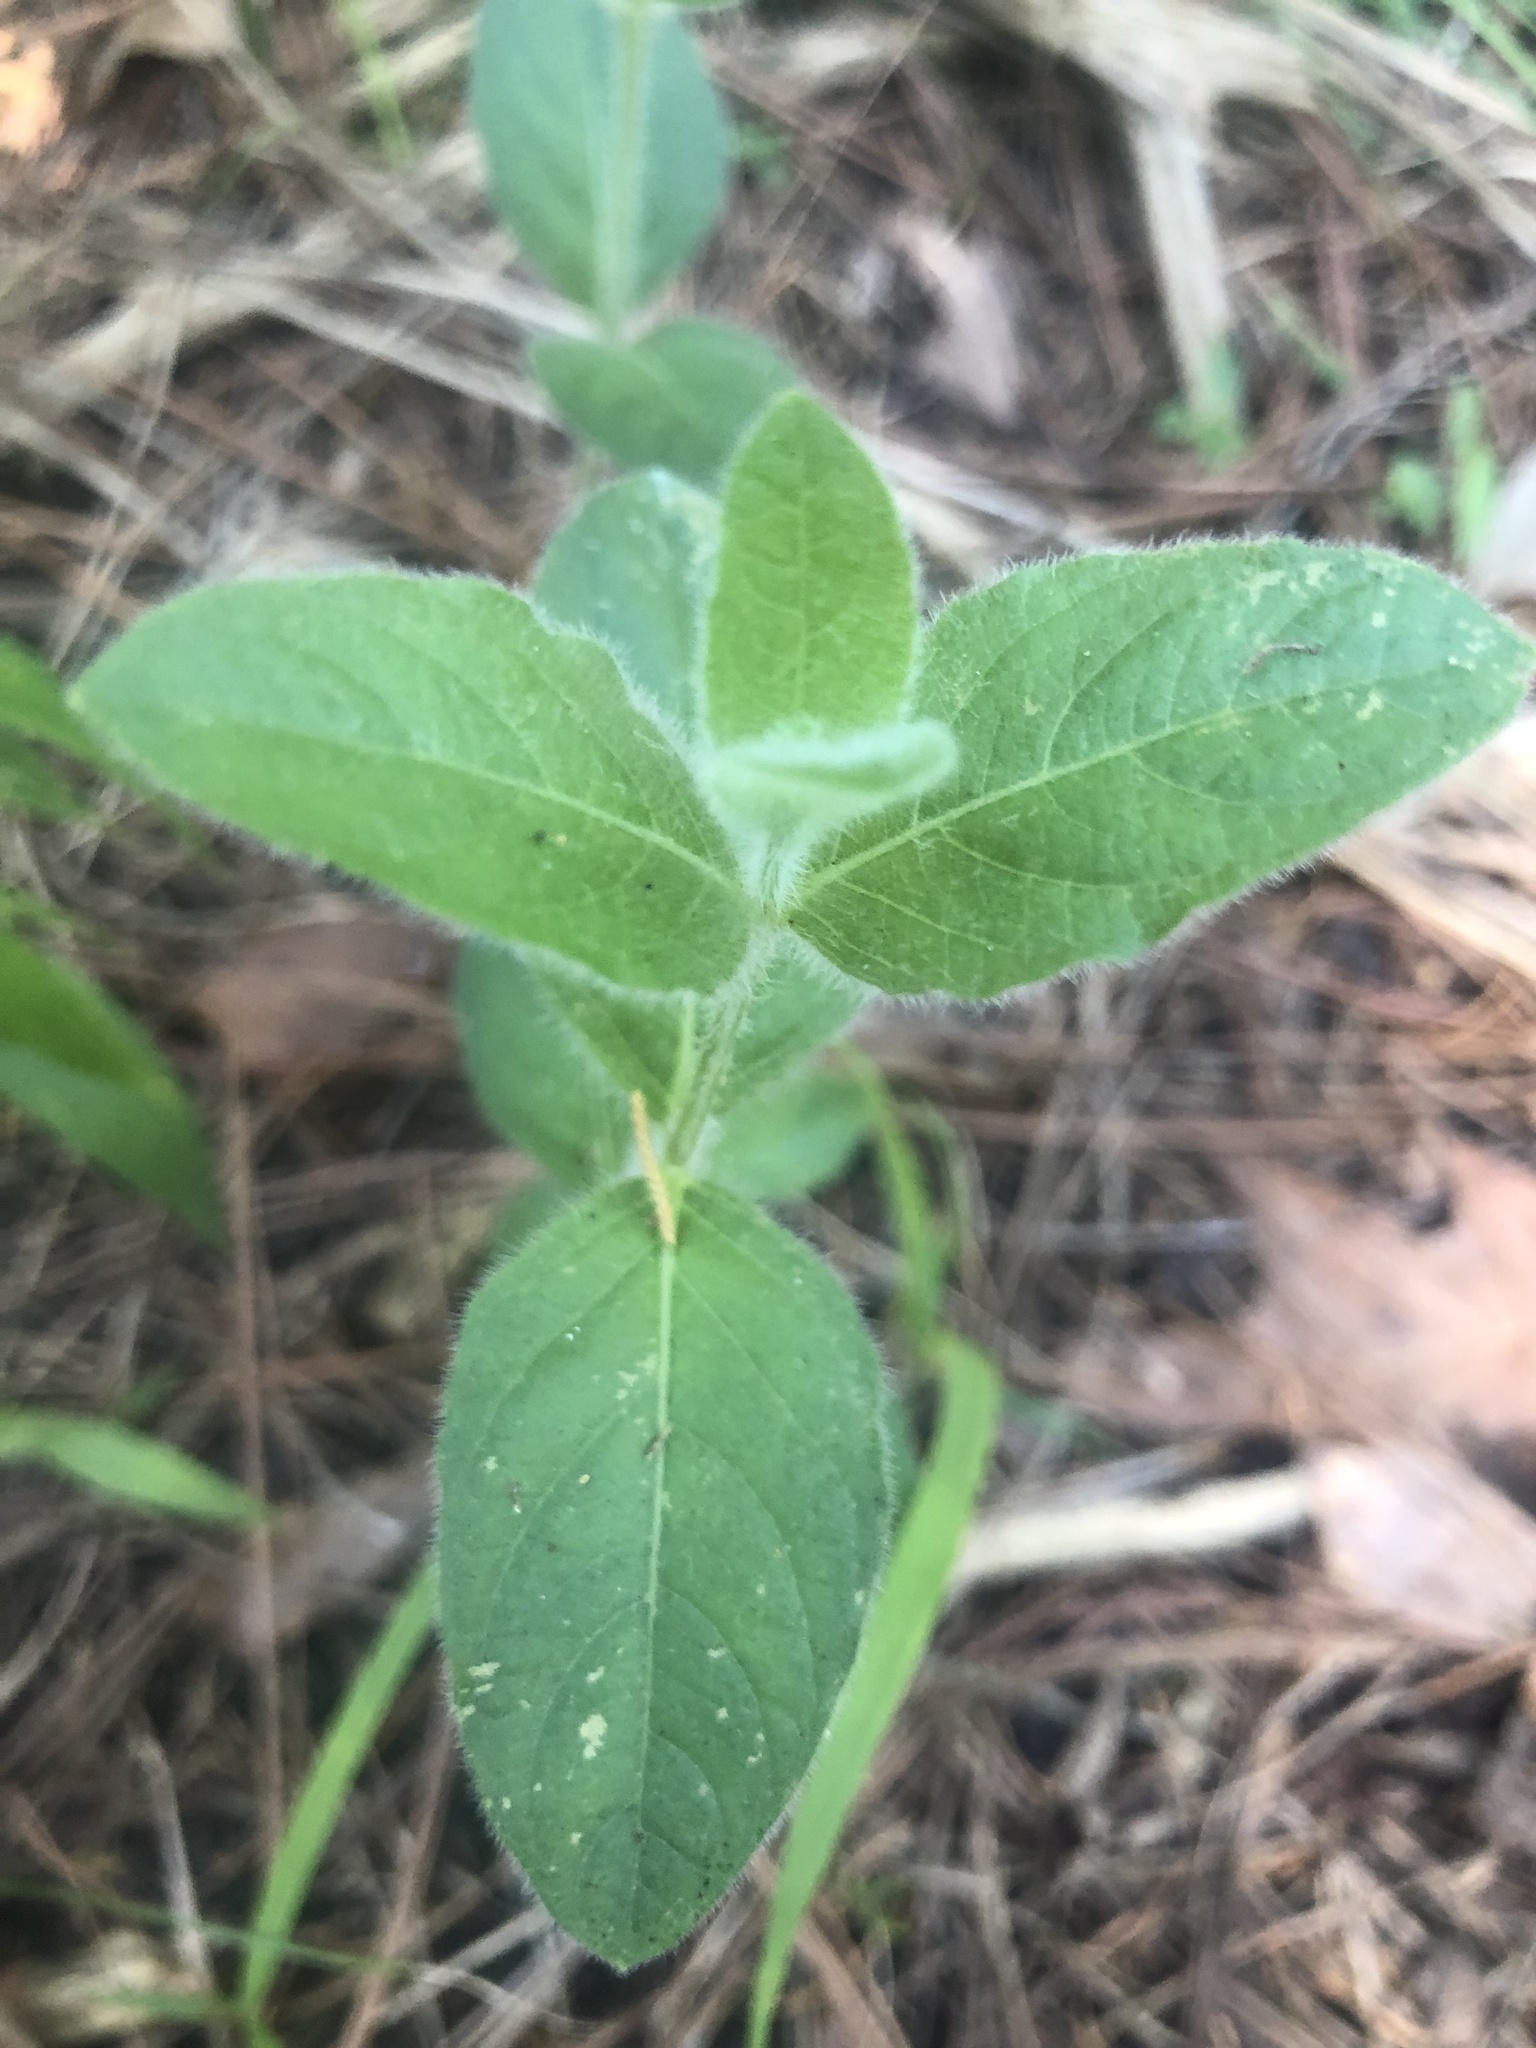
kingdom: Plantae
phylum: Tracheophyta
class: Magnoliopsida
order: Lamiales
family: Acanthaceae
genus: Ruellia
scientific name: Ruellia humilis
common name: Fringe-leaf ruellia
